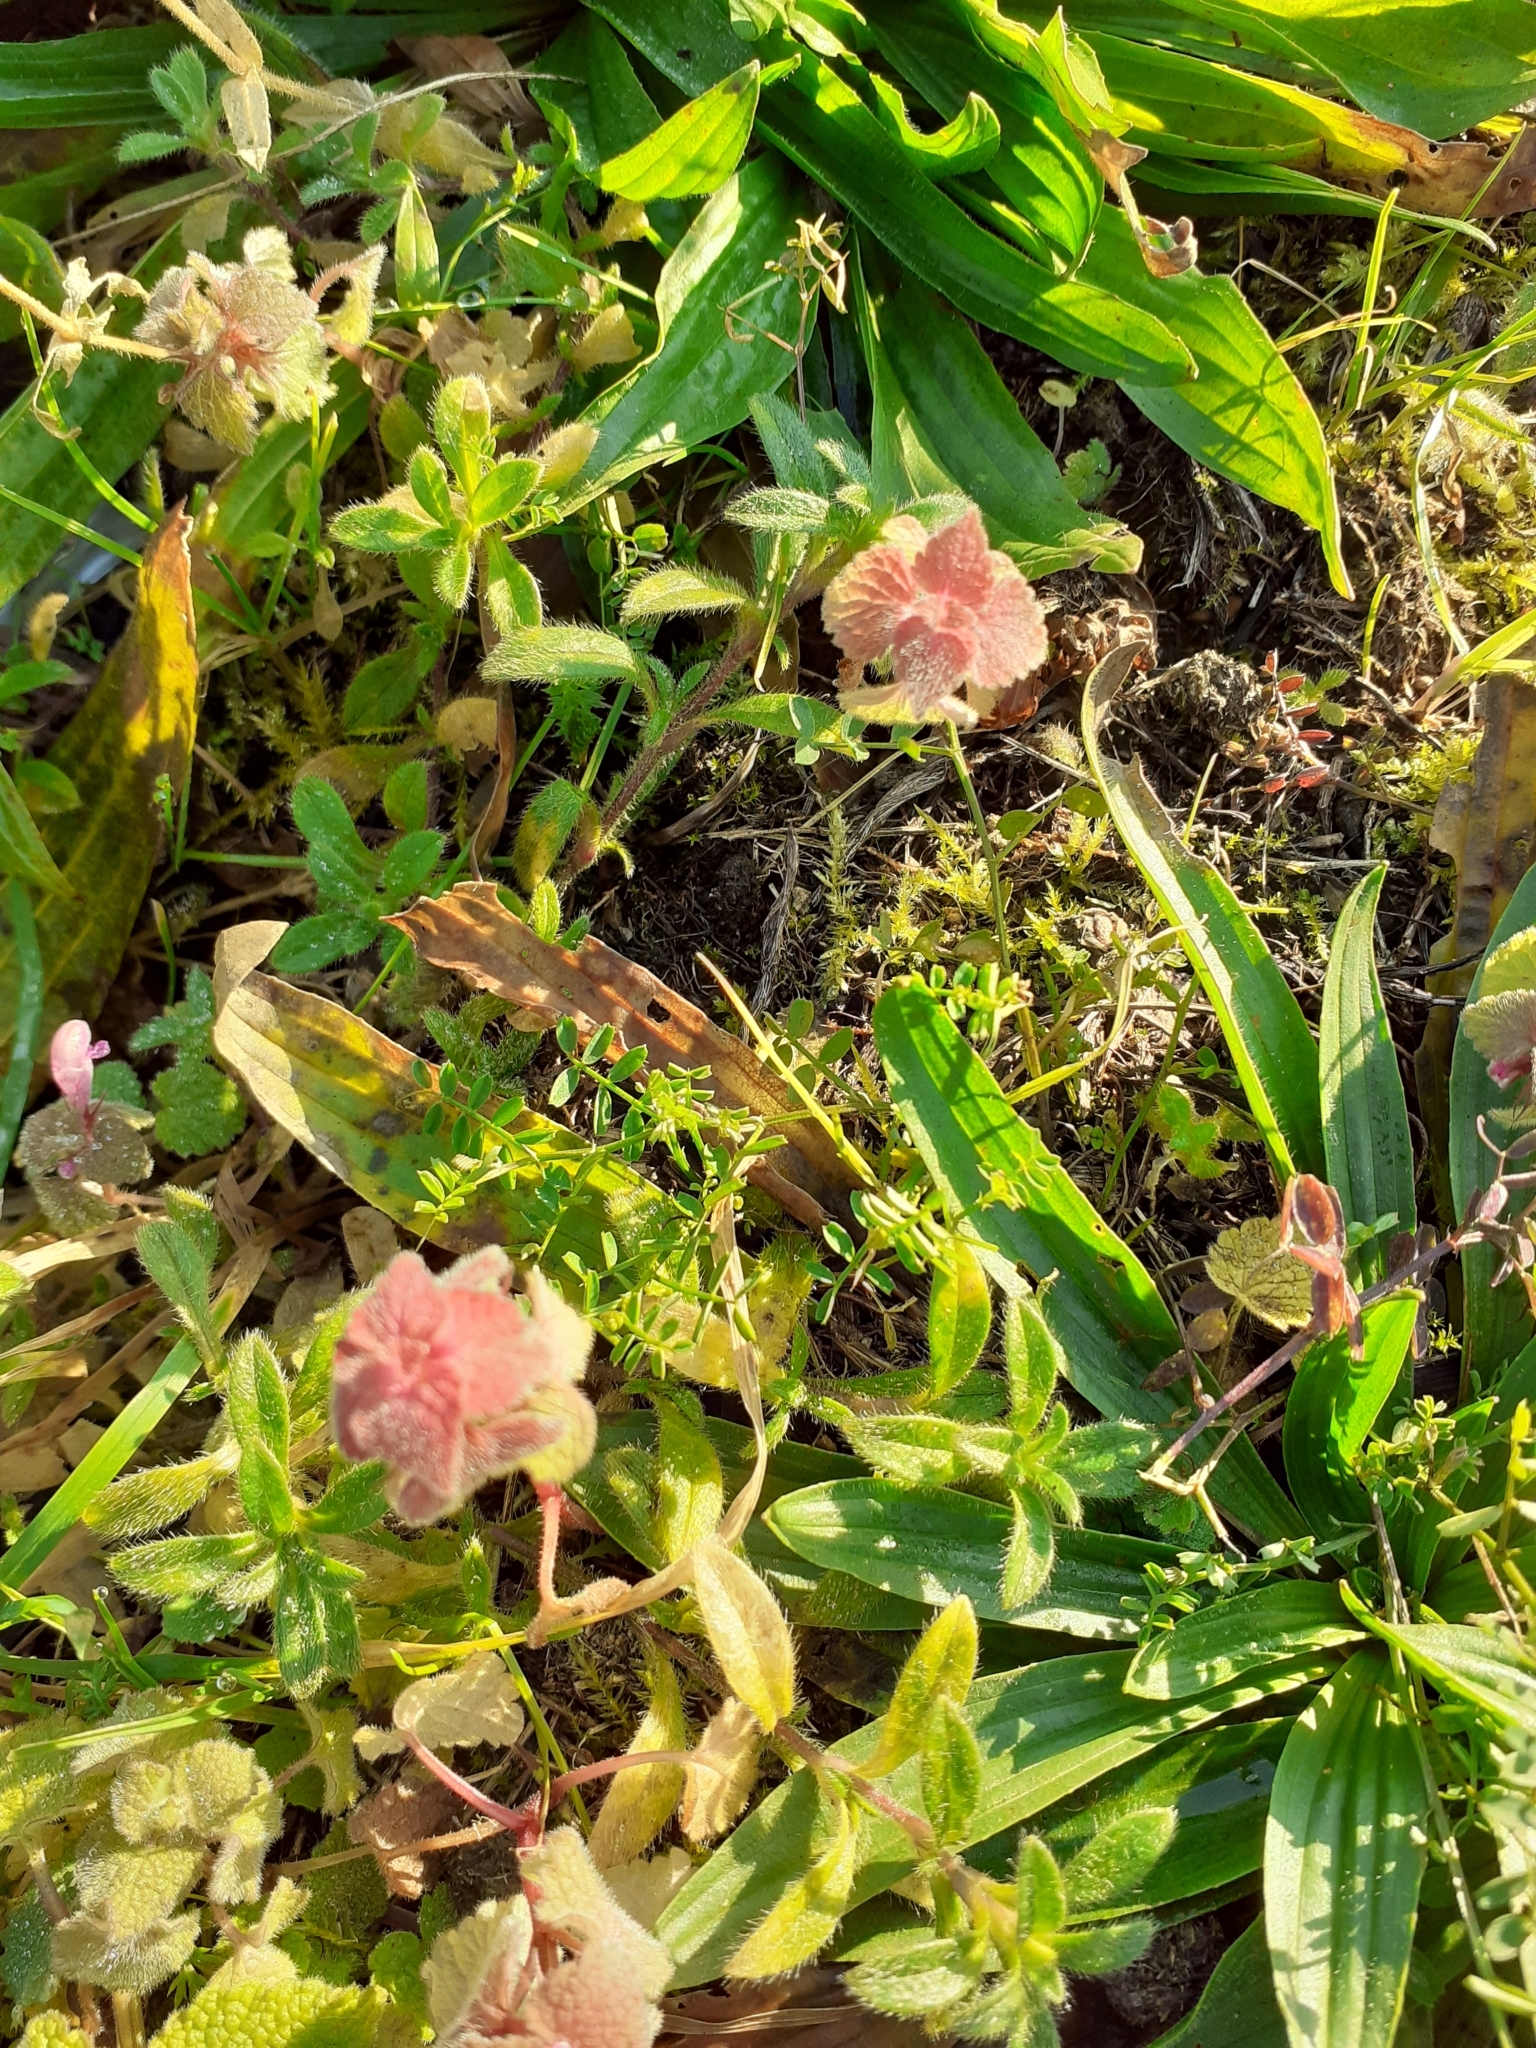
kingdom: Plantae
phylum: Tracheophyta
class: Magnoliopsida
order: Lamiales
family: Lamiaceae
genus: Lamium
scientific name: Lamium purpureum
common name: Red dead-nettle
